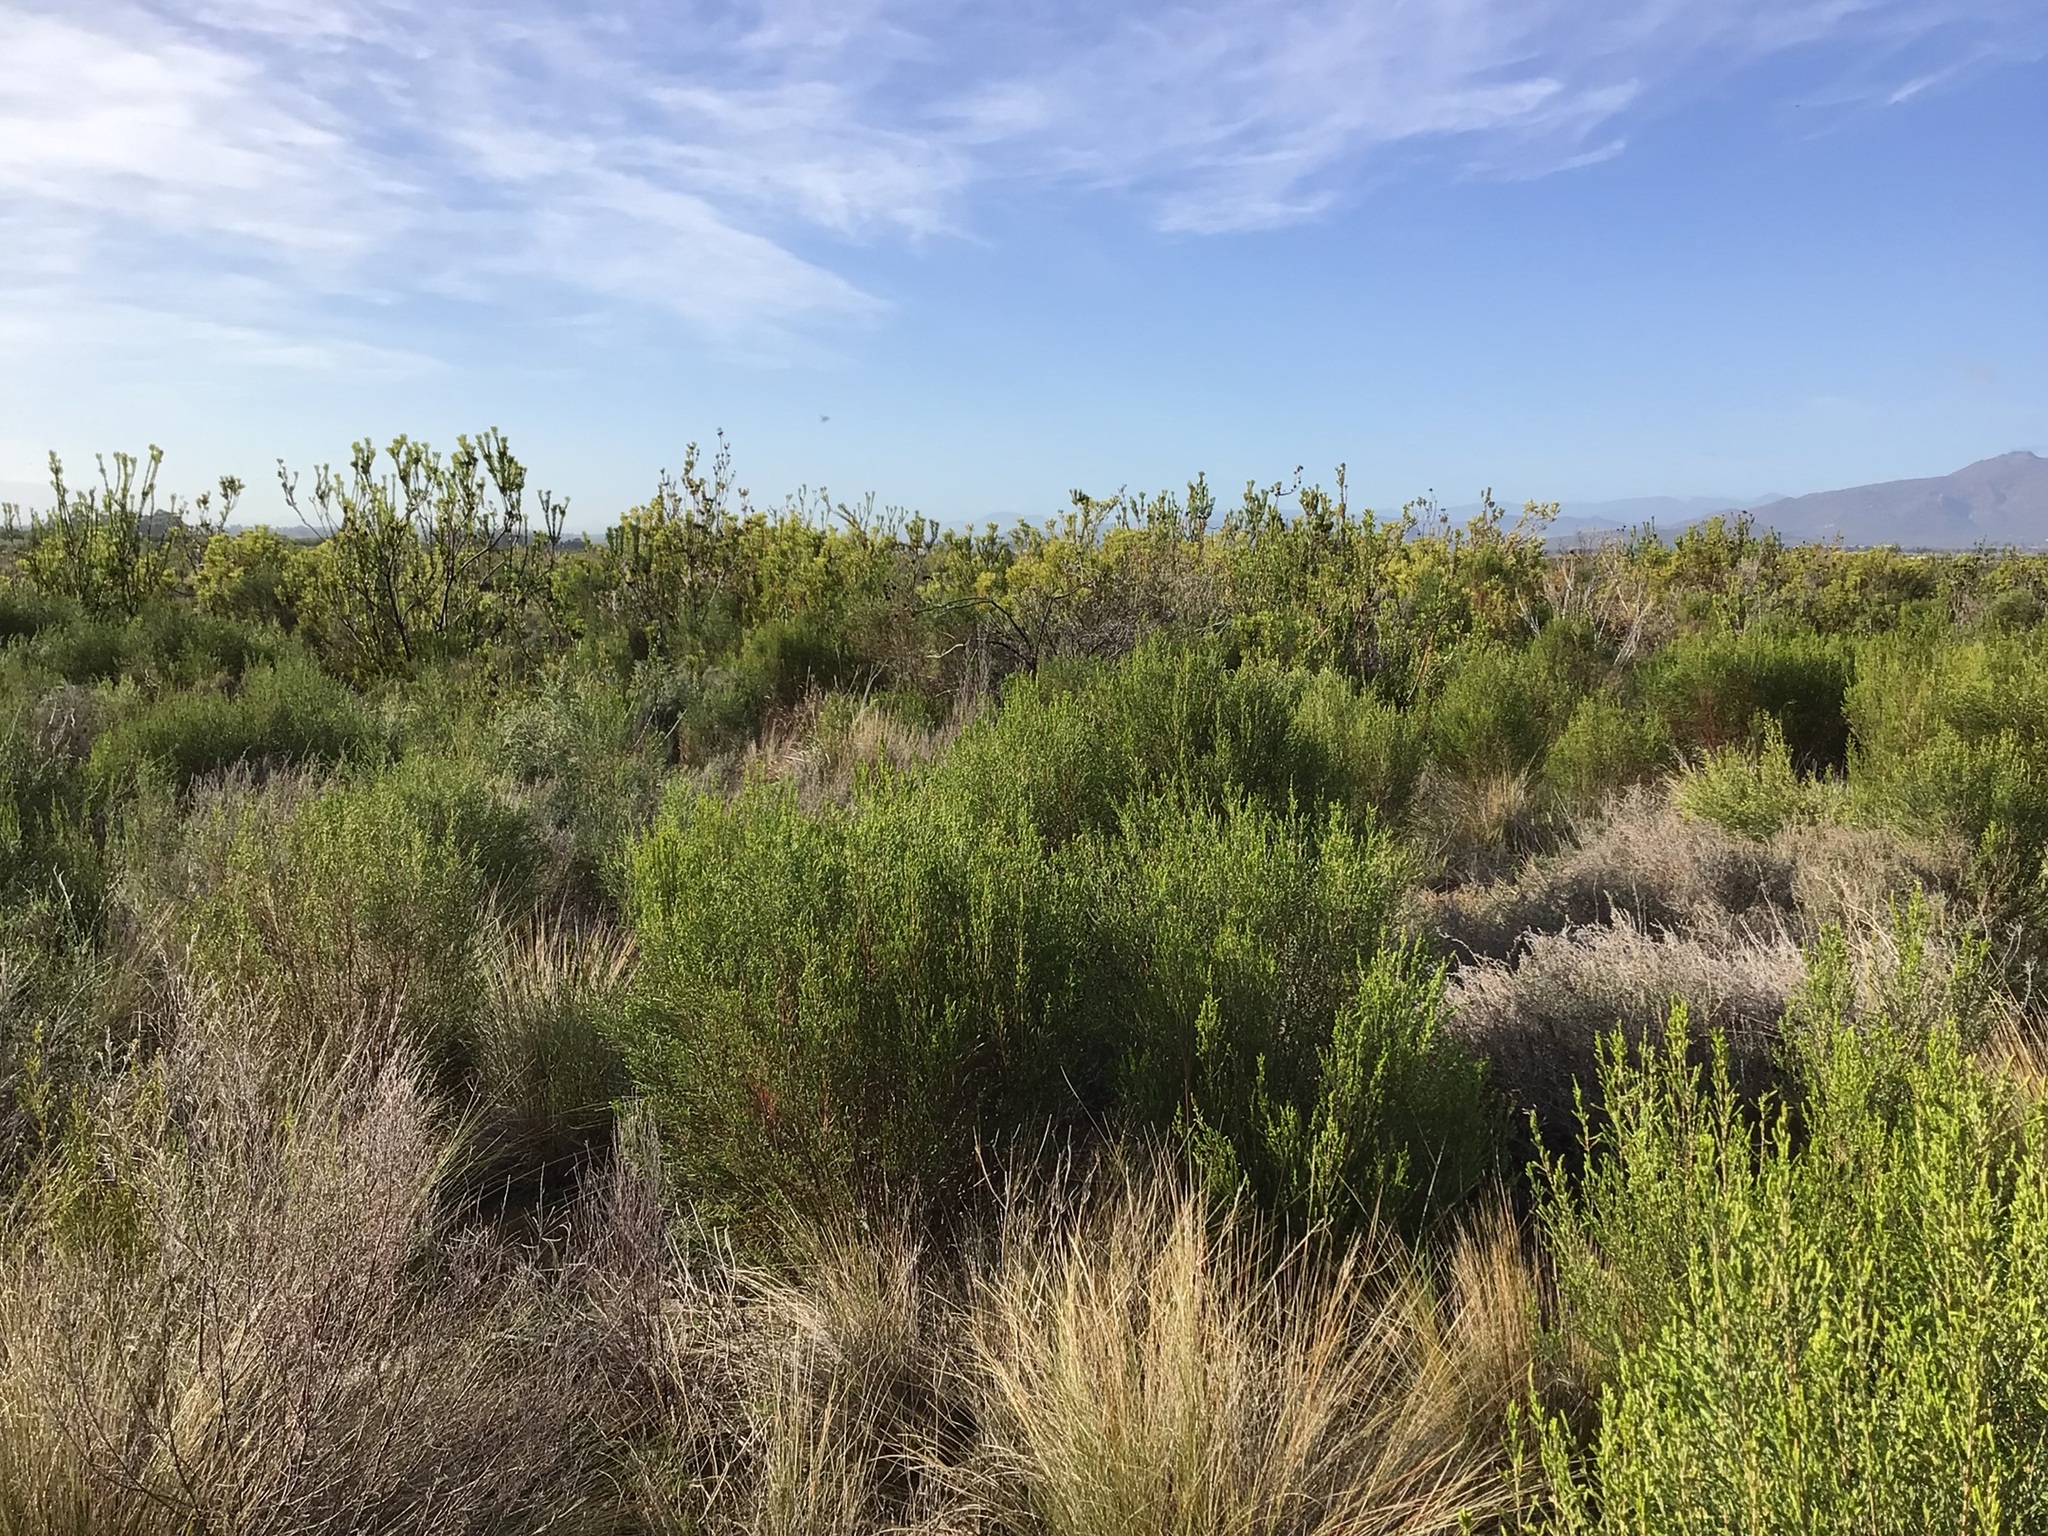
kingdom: Plantae
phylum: Tracheophyta
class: Magnoliopsida
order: Proteales
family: Proteaceae
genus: Leucadendron
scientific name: Leucadendron chamelaea
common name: Witsenberg conebush
